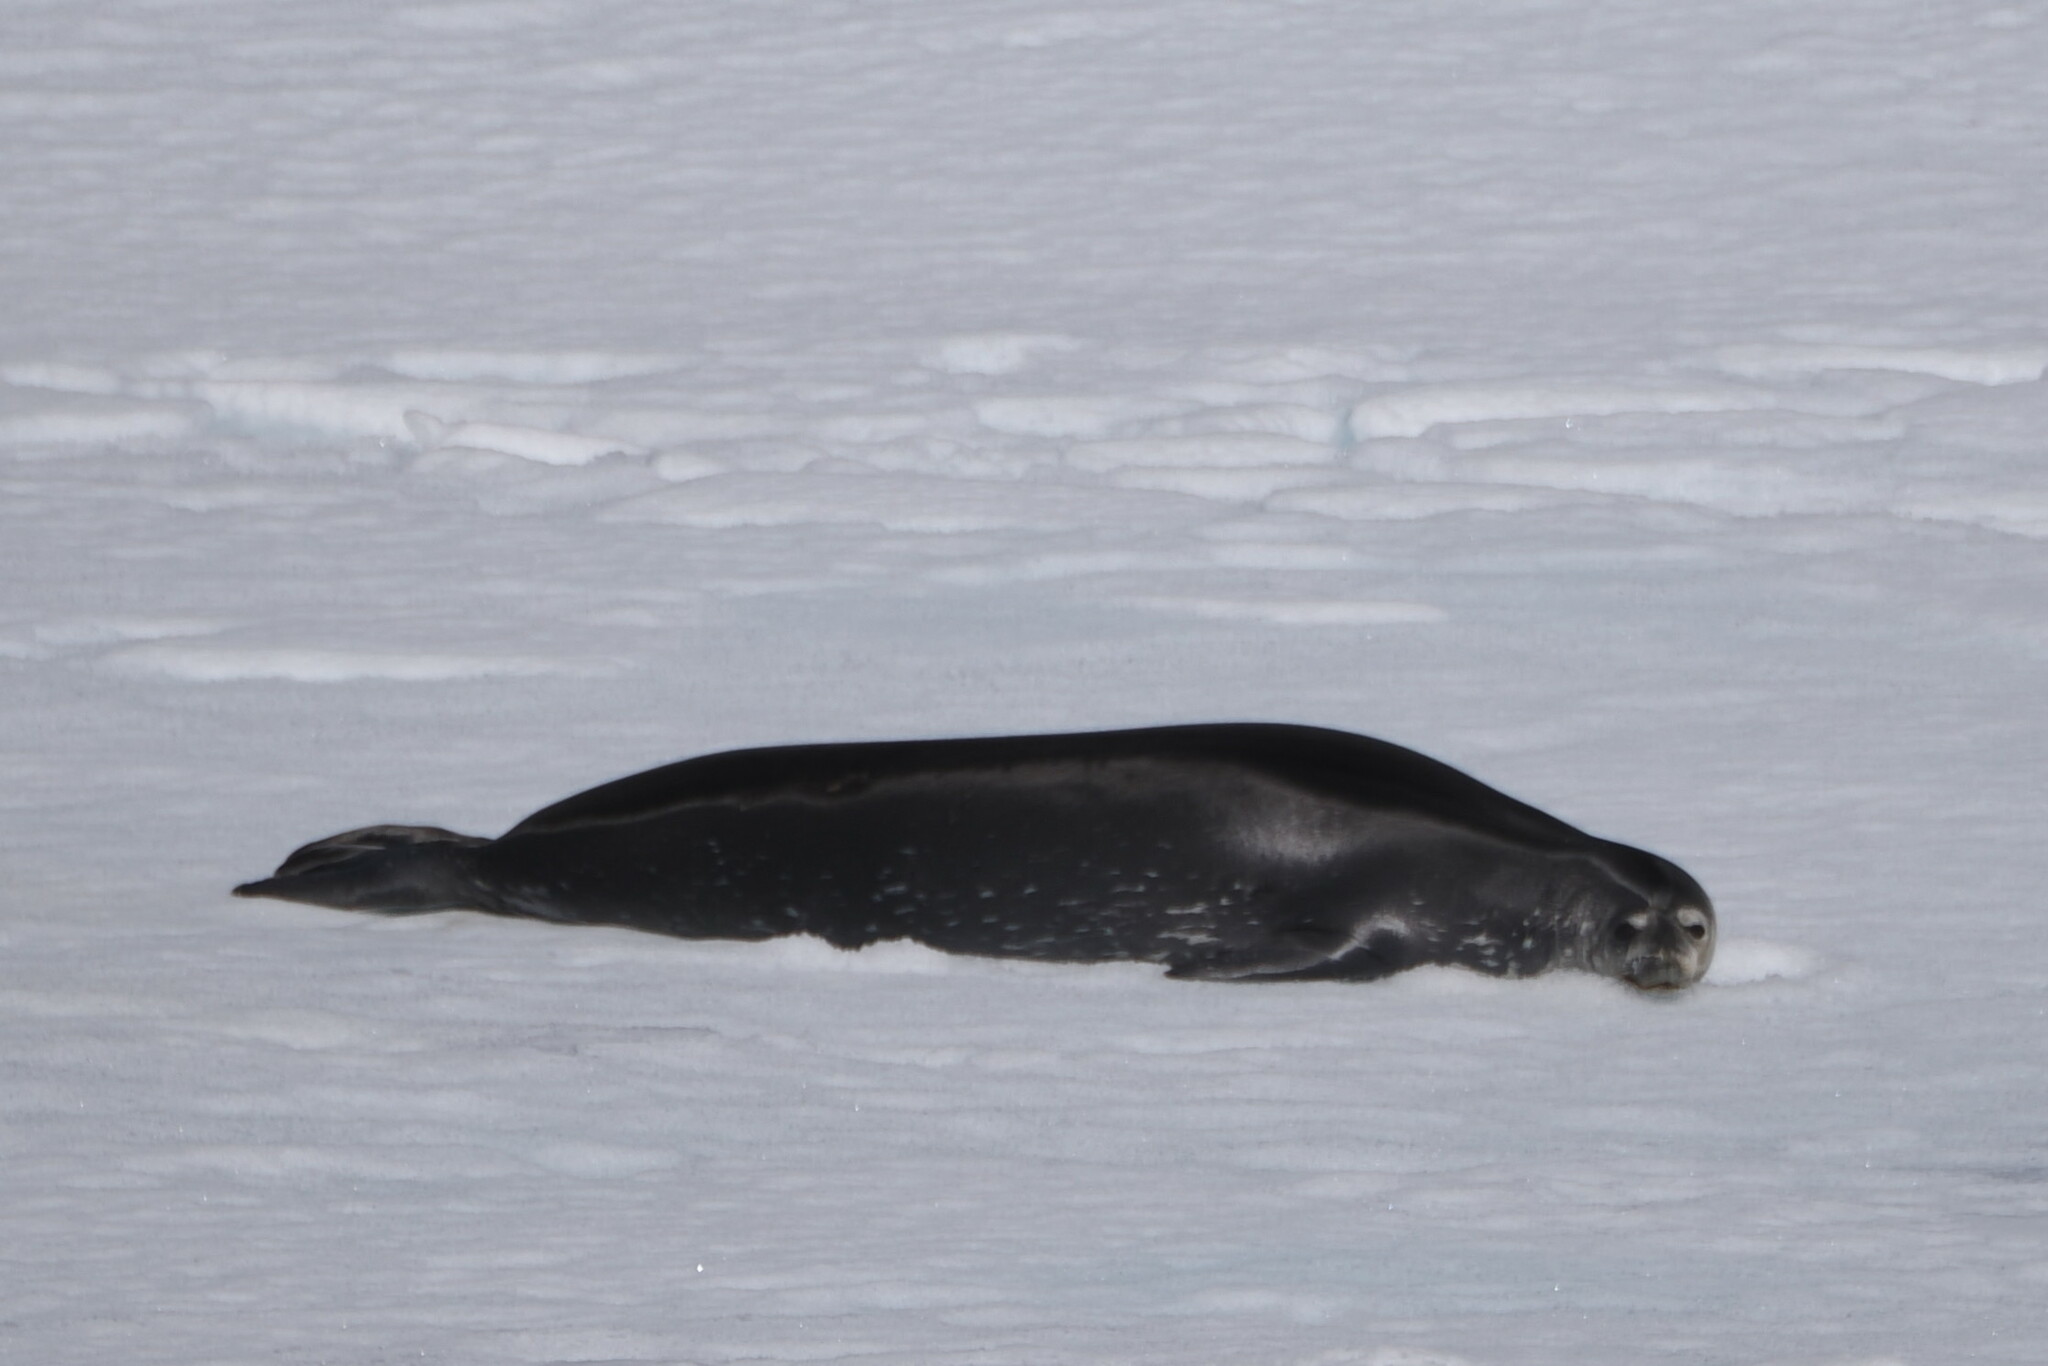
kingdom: Animalia
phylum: Chordata
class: Mammalia
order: Carnivora
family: Phocidae
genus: Leptonychotes
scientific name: Leptonychotes weddellii
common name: Weddell seal
